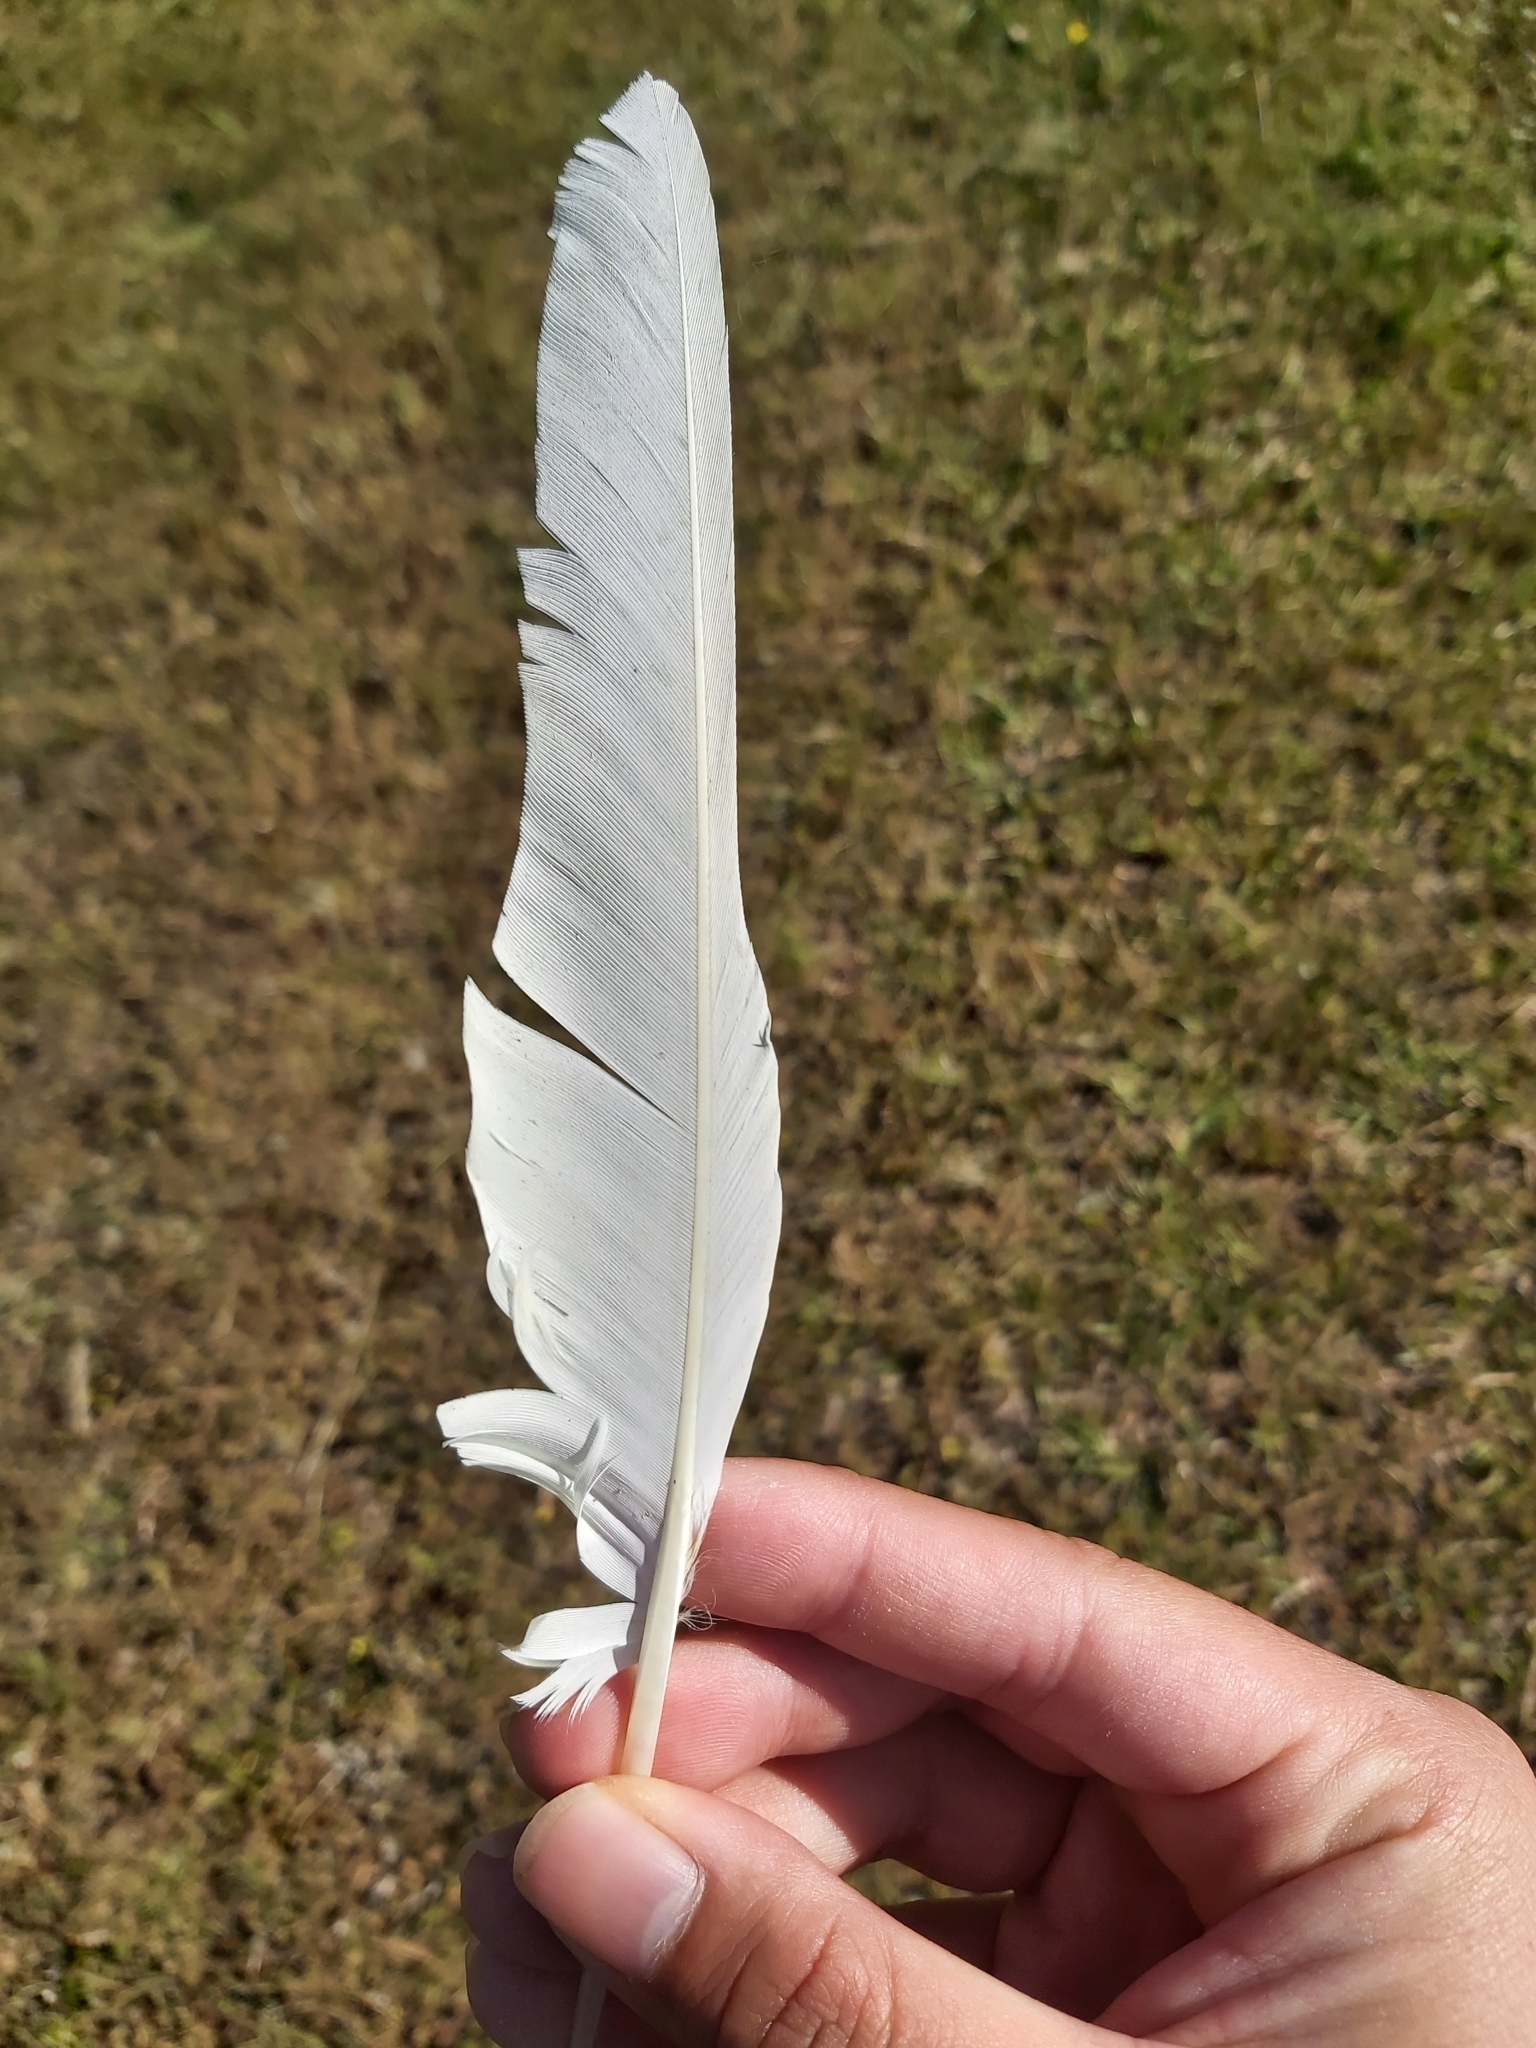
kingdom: Animalia
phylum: Chordata
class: Aves
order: Psittaciformes
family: Psittacidae
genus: Cacatua
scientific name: Cacatua sanguinea
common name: Little corella
